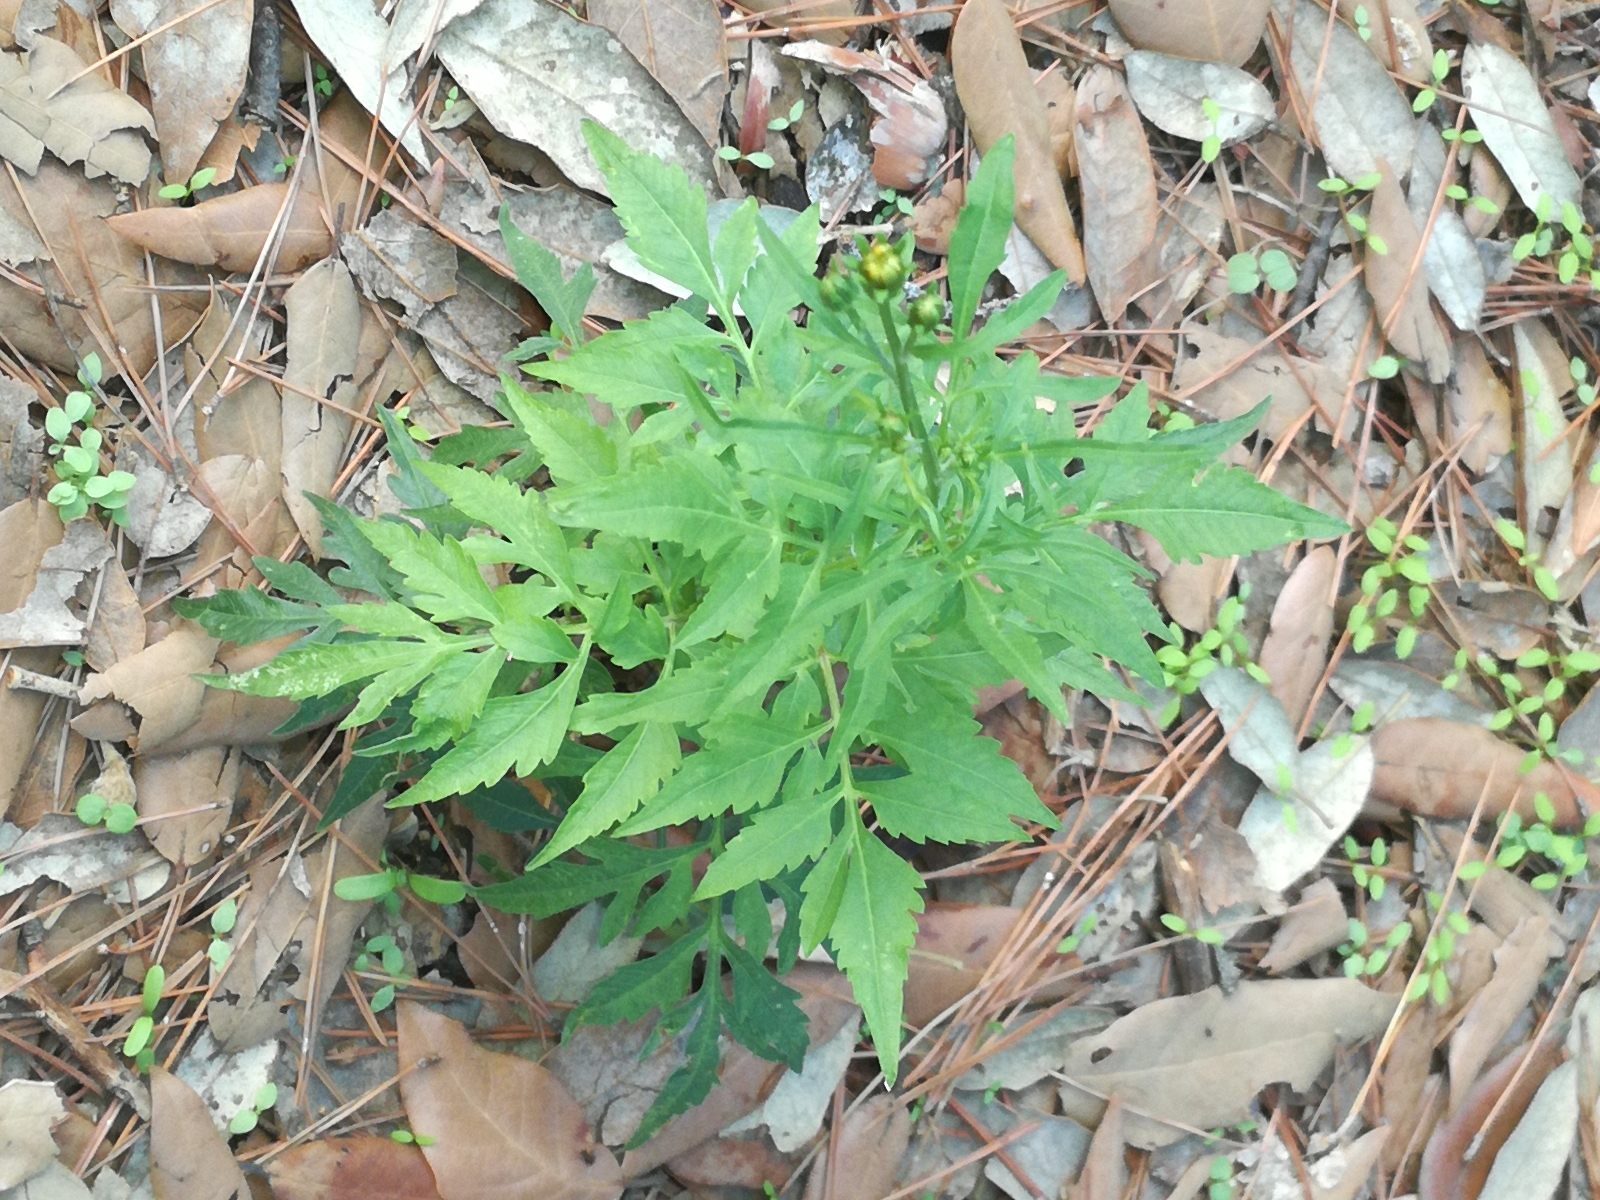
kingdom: Plantae
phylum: Tracheophyta
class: Magnoliopsida
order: Asterales
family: Asteraceae
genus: Bidens
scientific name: Bidens subalternans
